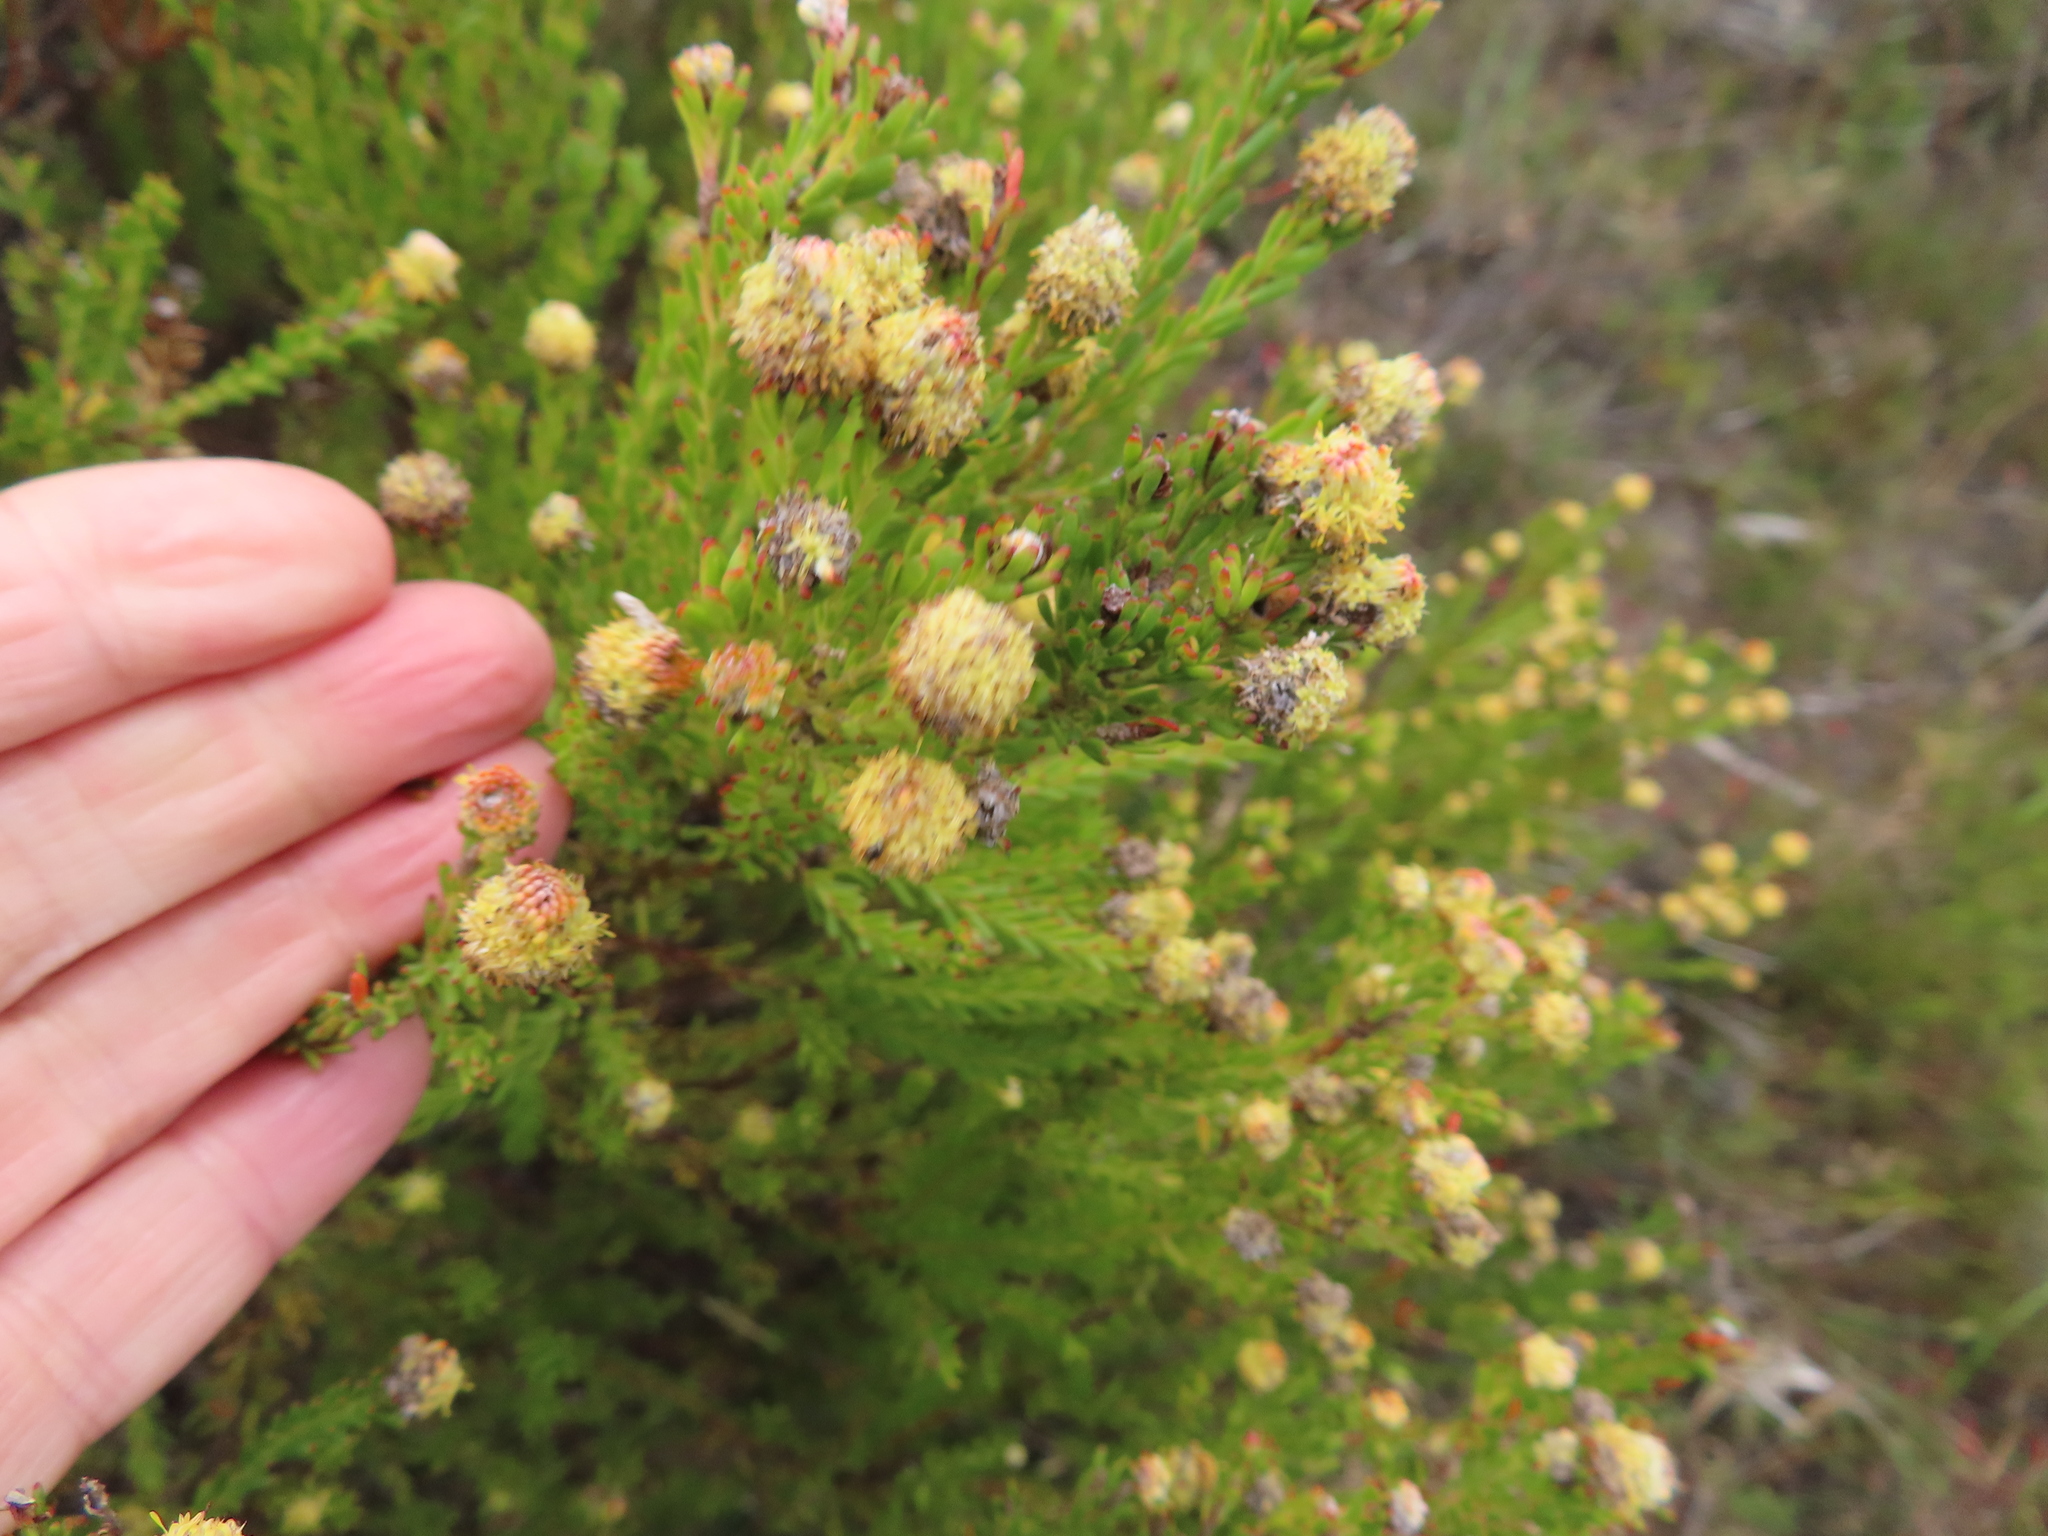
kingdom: Plantae
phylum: Tracheophyta
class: Magnoliopsida
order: Proteales
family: Proteaceae
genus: Leucadendron
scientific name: Leucadendron linifolium
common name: Line-leaf conebush
